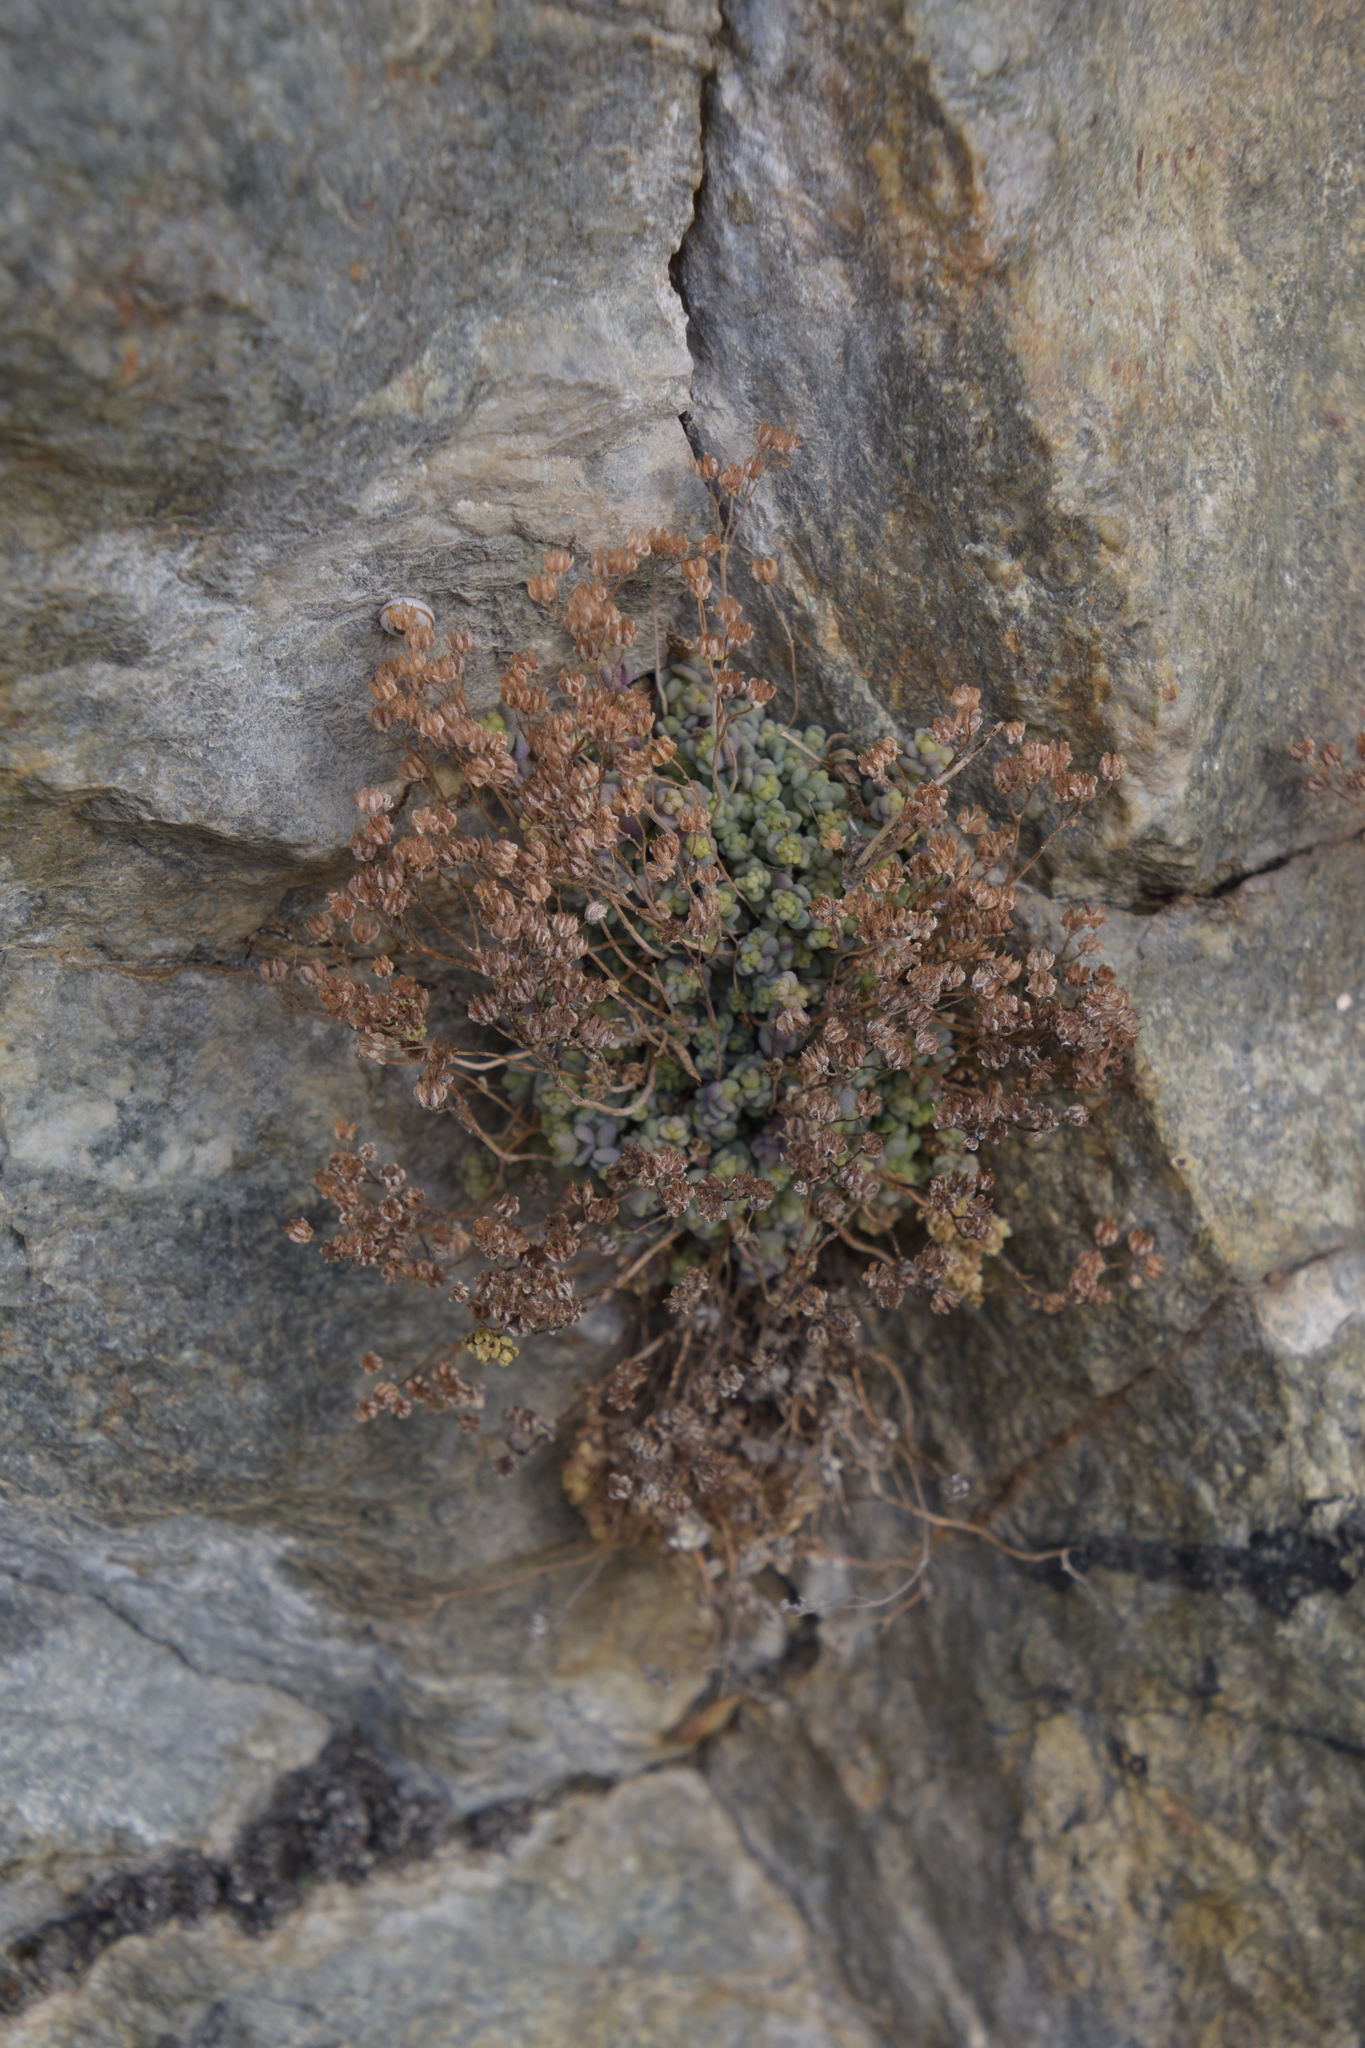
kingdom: Plantae
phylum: Tracheophyta
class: Magnoliopsida
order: Saxifragales
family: Crassulaceae
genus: Sedum
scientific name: Sedum dasyphyllum
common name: Thick-leaf stonecrop
